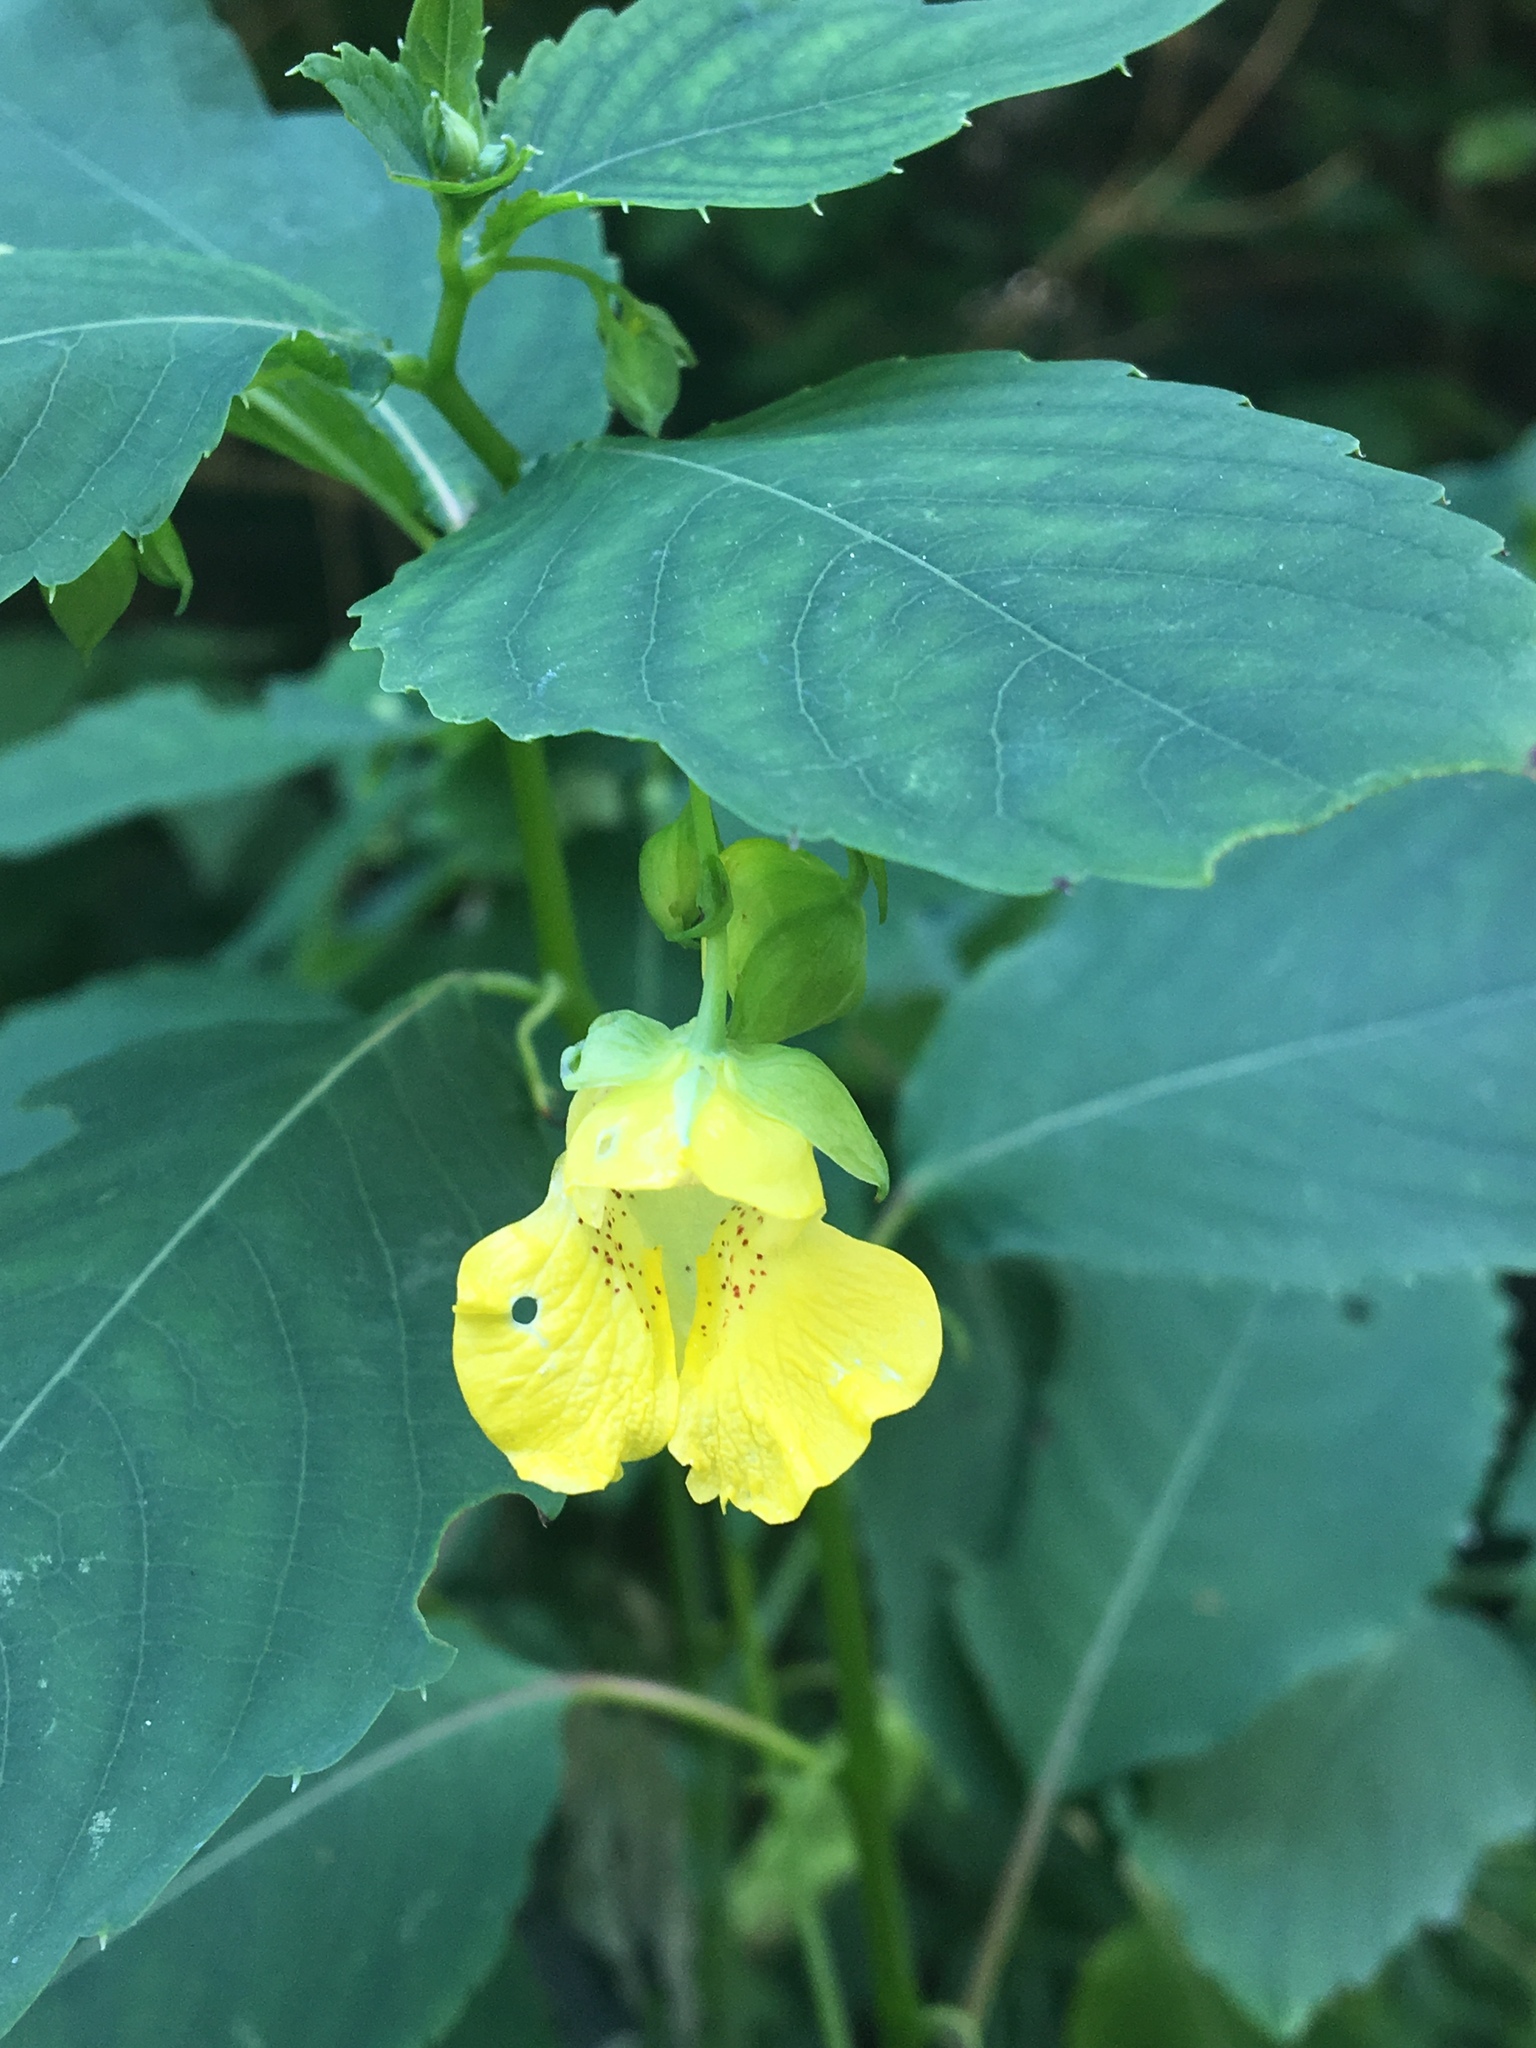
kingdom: Plantae
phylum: Tracheophyta
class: Magnoliopsida
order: Ericales
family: Balsaminaceae
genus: Impatiens
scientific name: Impatiens pallida
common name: Pale snapweed
